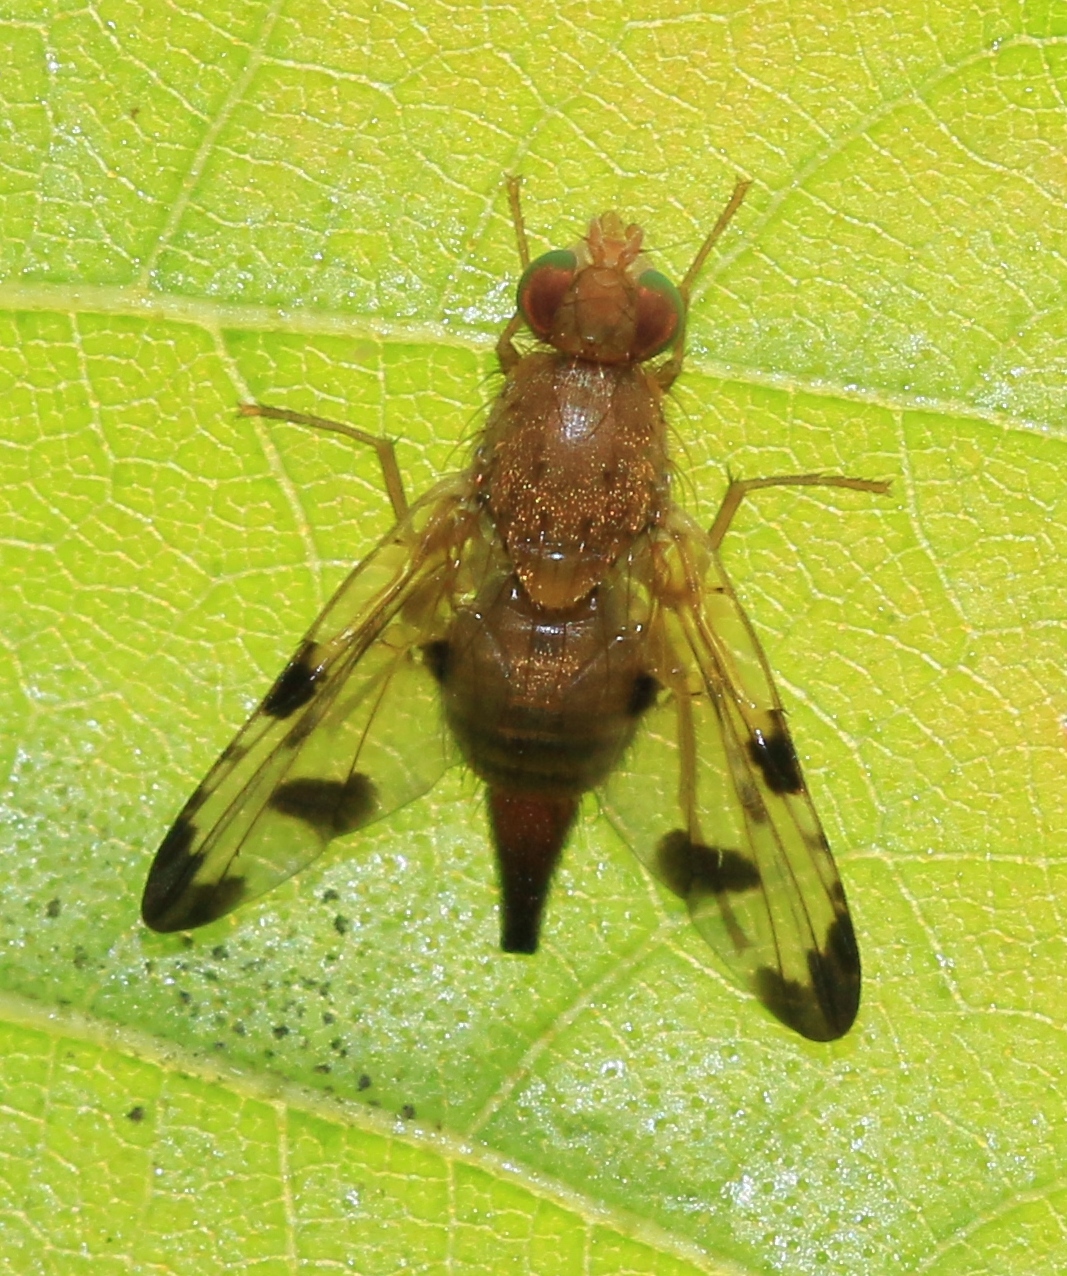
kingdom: Animalia
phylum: Arthropoda
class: Insecta
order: Diptera
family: Tephritidae
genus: Xyphosia
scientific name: Xyphosia miliaria
